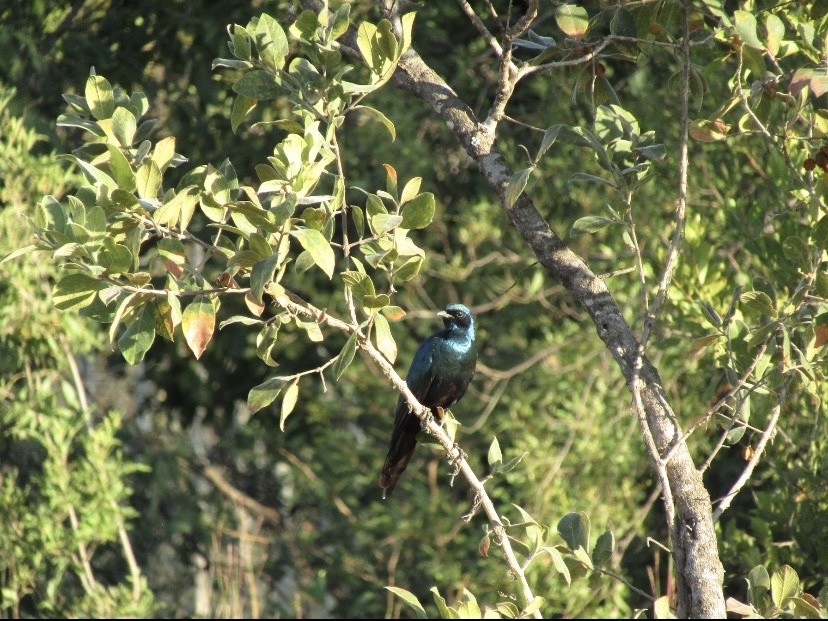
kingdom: Animalia
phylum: Chordata
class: Aves
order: Passeriformes
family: Sturnidae
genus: Lamprotornis
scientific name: Lamprotornis australis
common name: Burchell's starling
